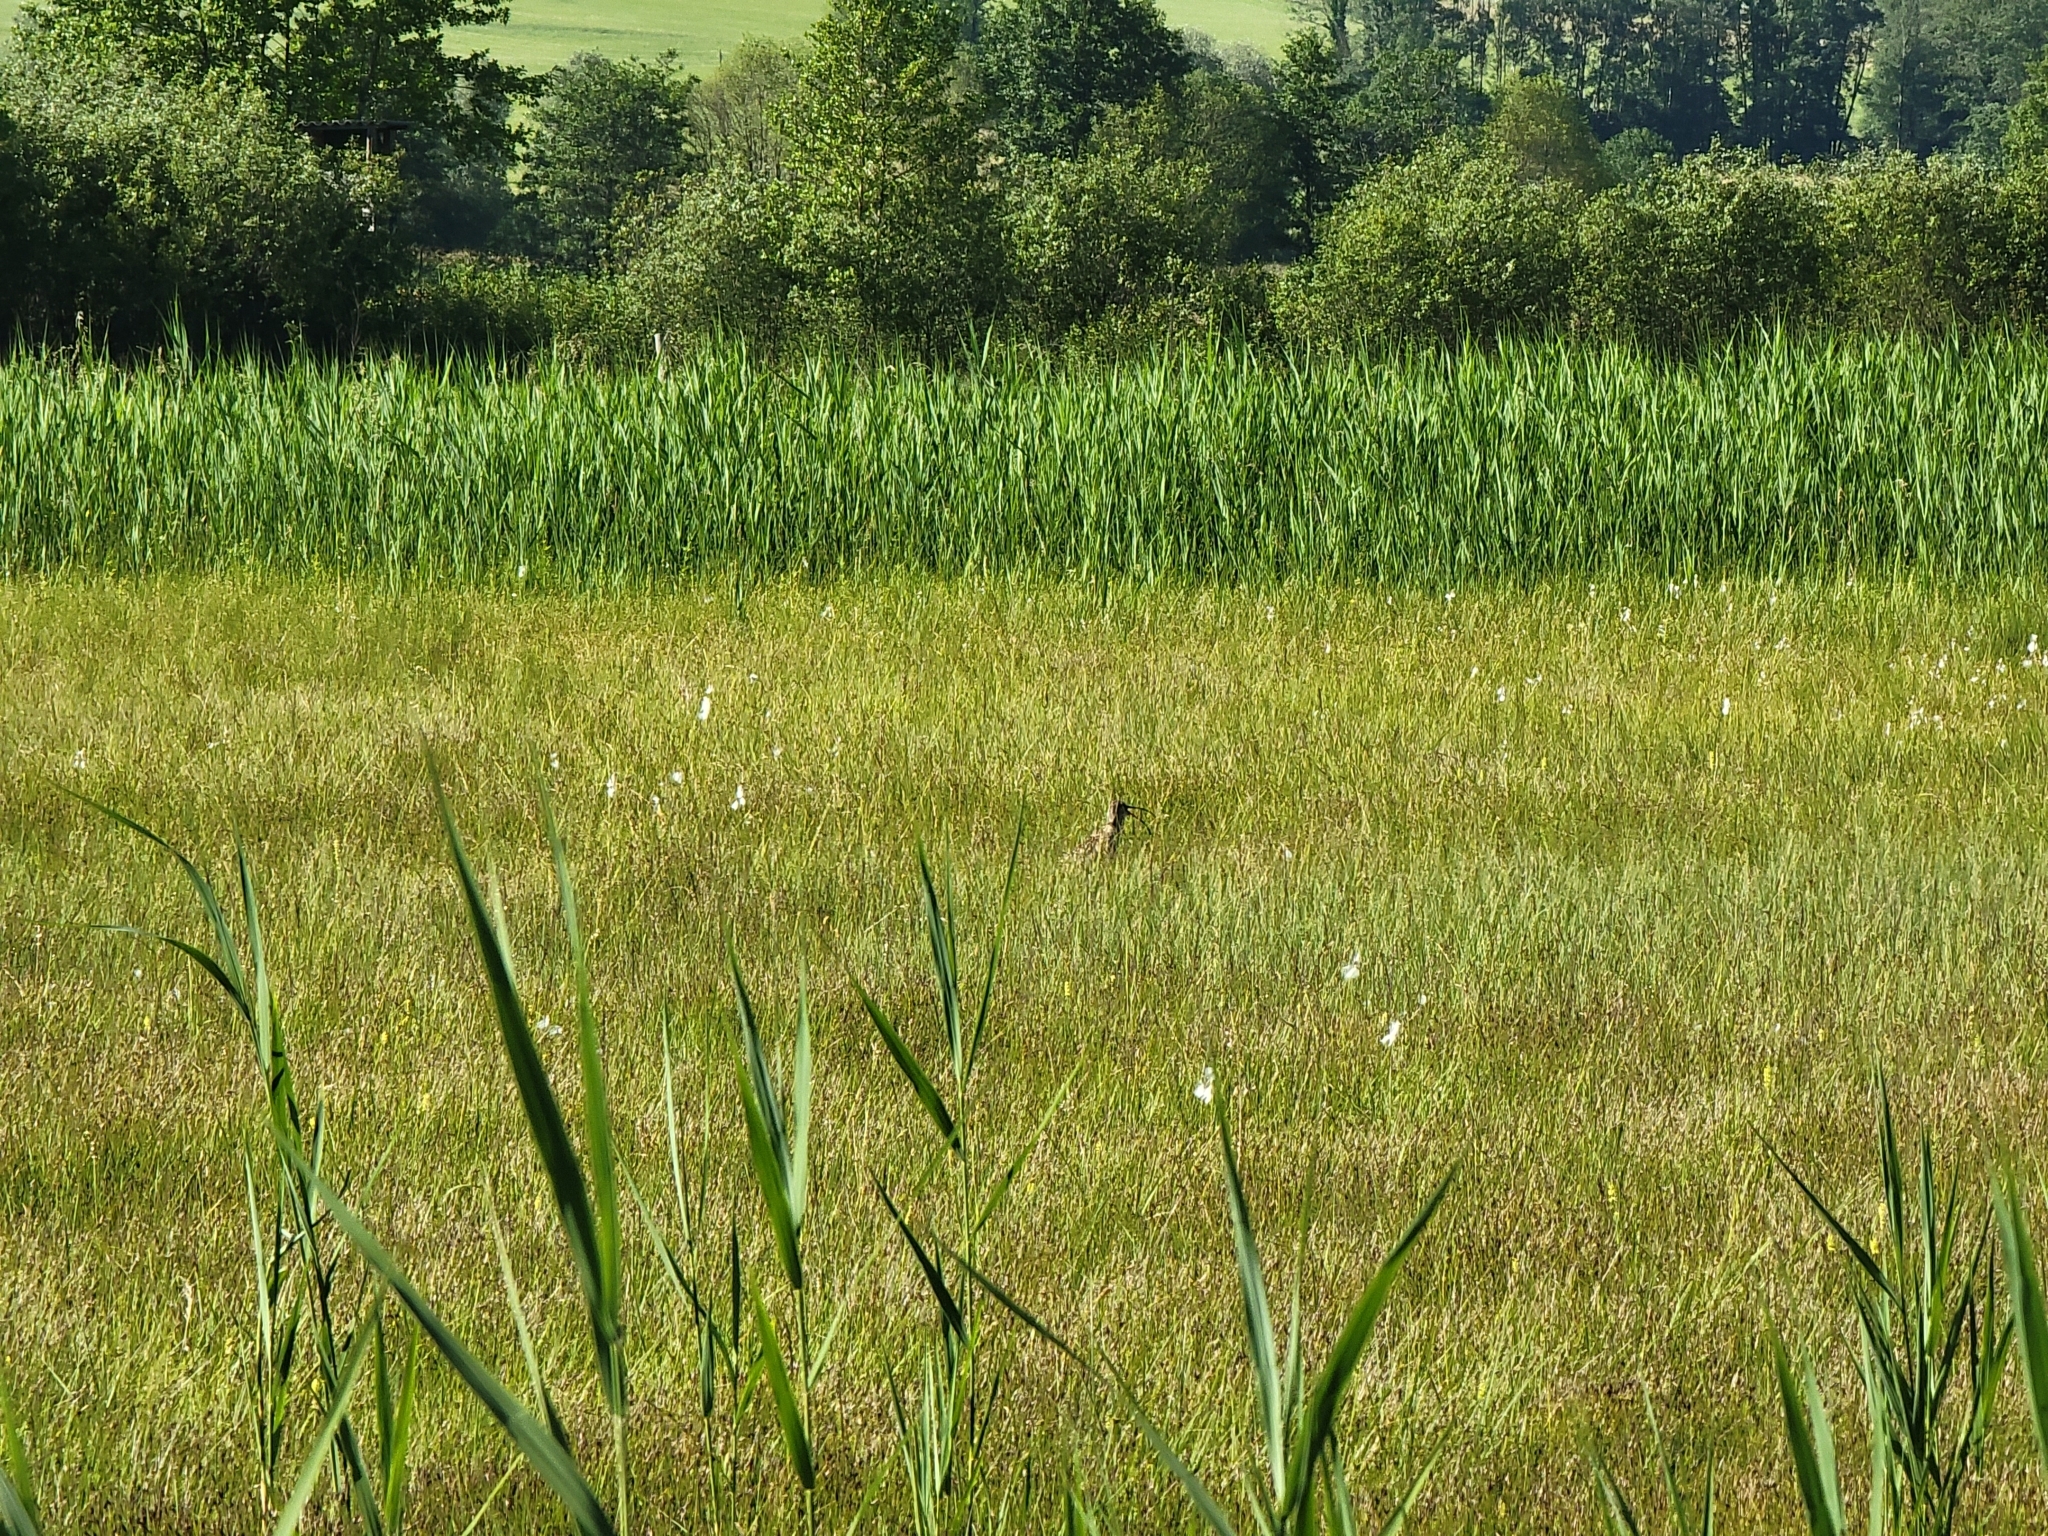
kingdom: Animalia
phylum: Chordata
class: Aves
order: Charadriiformes
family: Scolopacidae
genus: Numenius
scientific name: Numenius arquata
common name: Eurasian curlew
